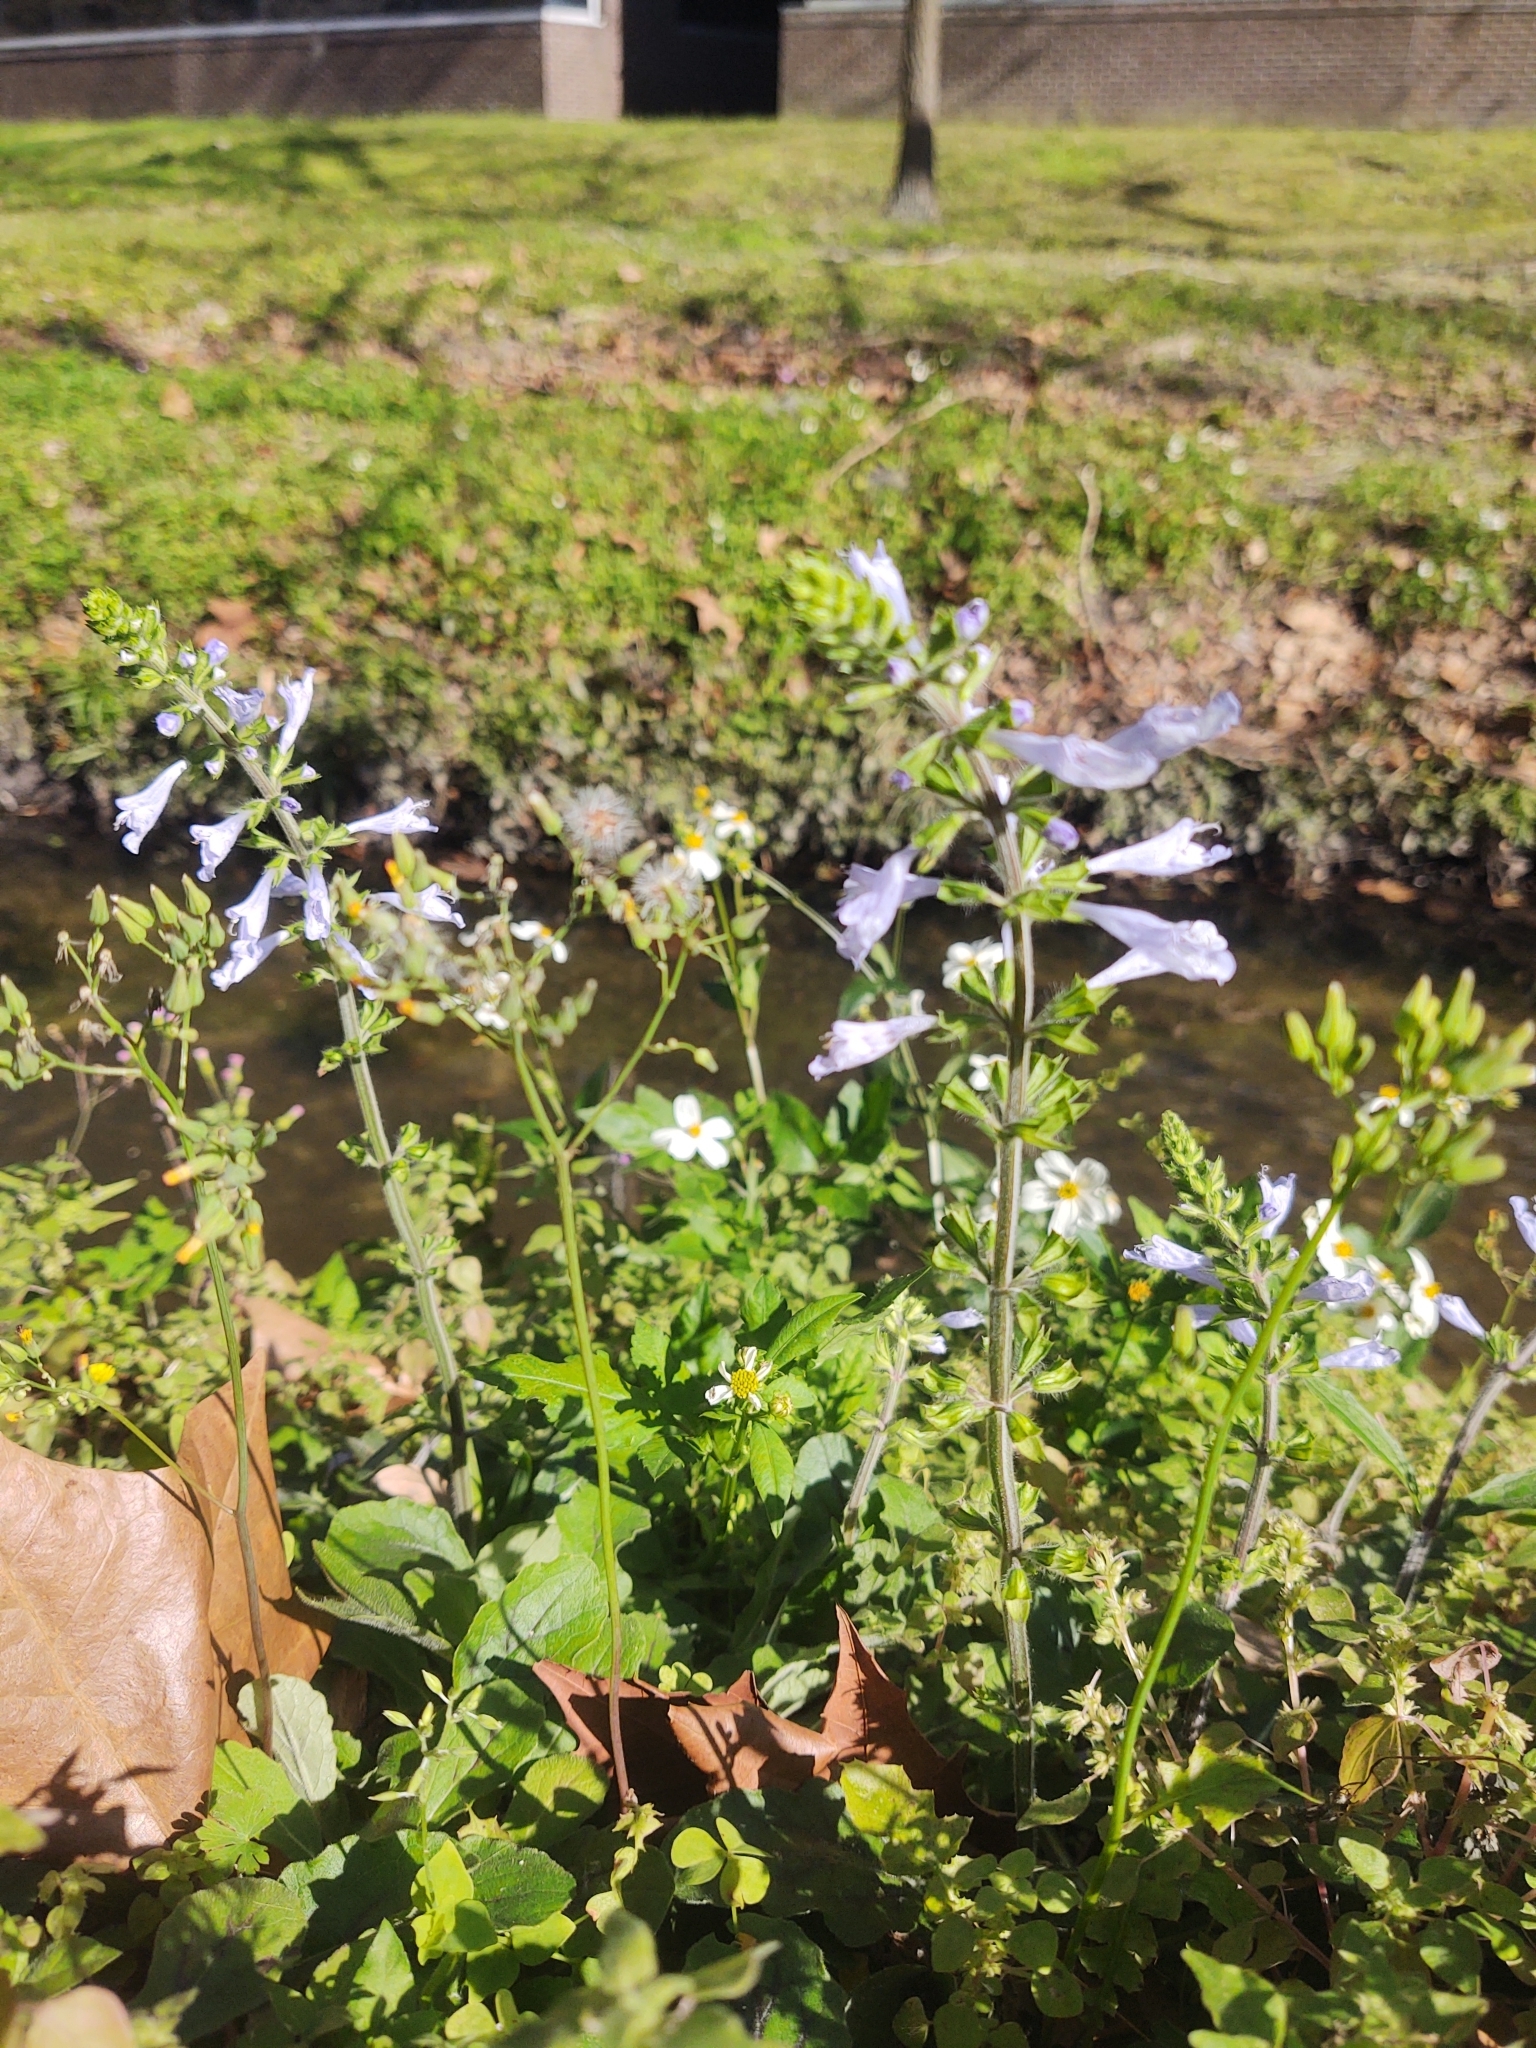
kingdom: Plantae
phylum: Tracheophyta
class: Magnoliopsida
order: Lamiales
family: Lamiaceae
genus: Salvia
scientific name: Salvia lyrata
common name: Cancerweed
